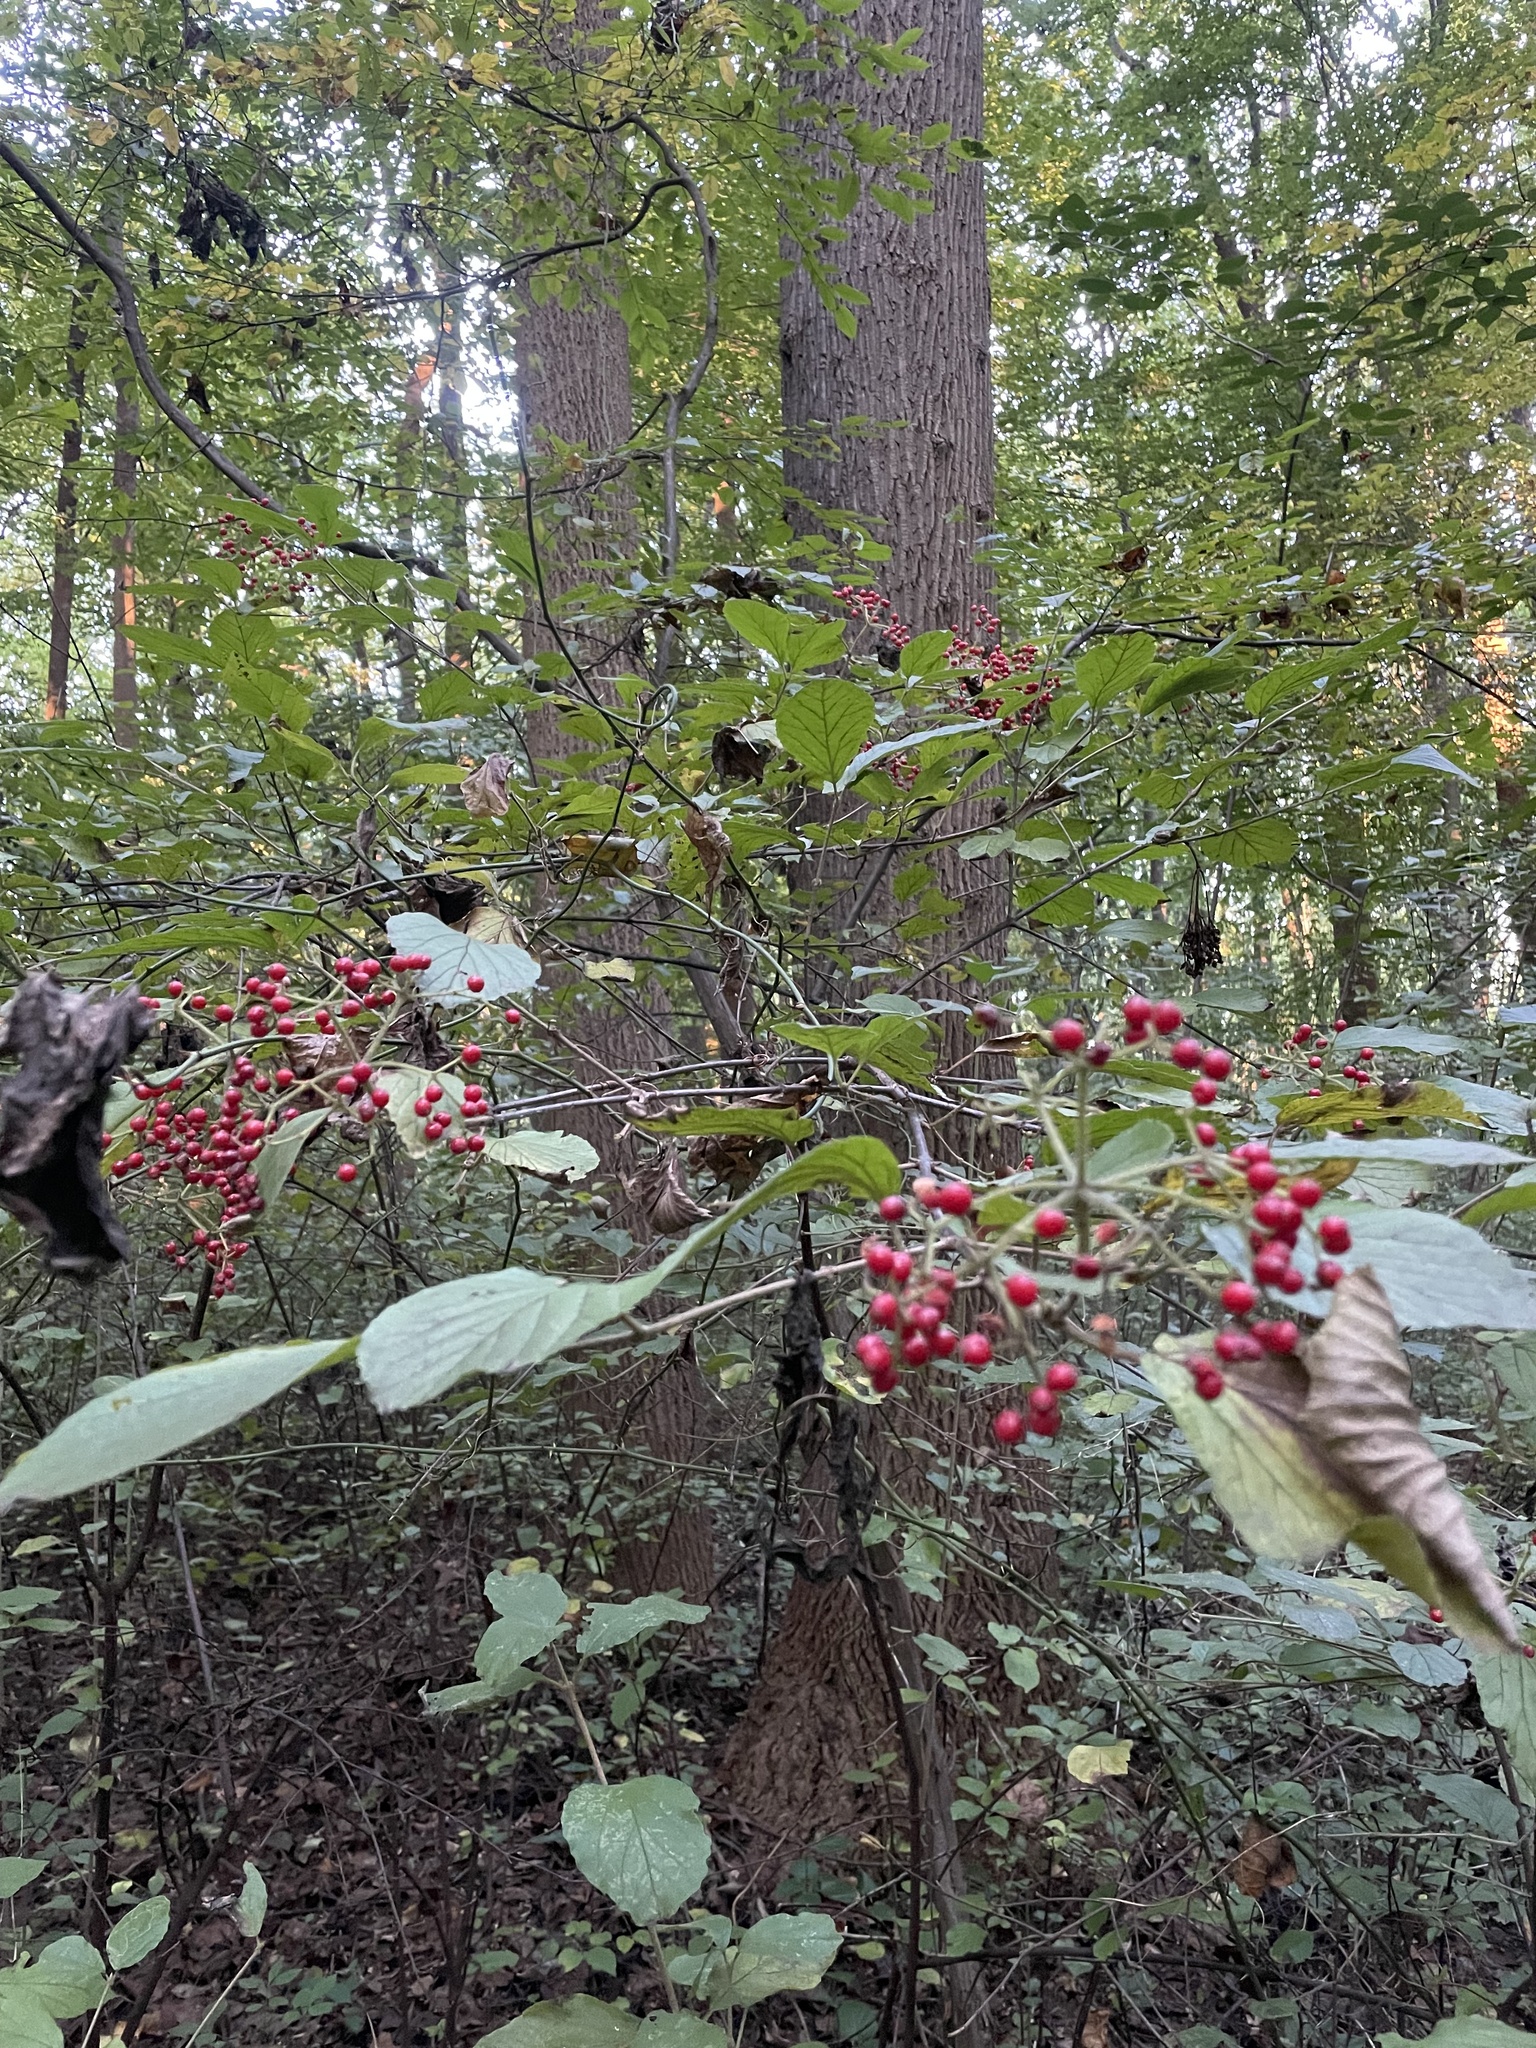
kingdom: Plantae
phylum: Tracheophyta
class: Magnoliopsida
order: Dipsacales
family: Viburnaceae
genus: Viburnum
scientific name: Viburnum dilatatum
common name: Linden arrowwood
